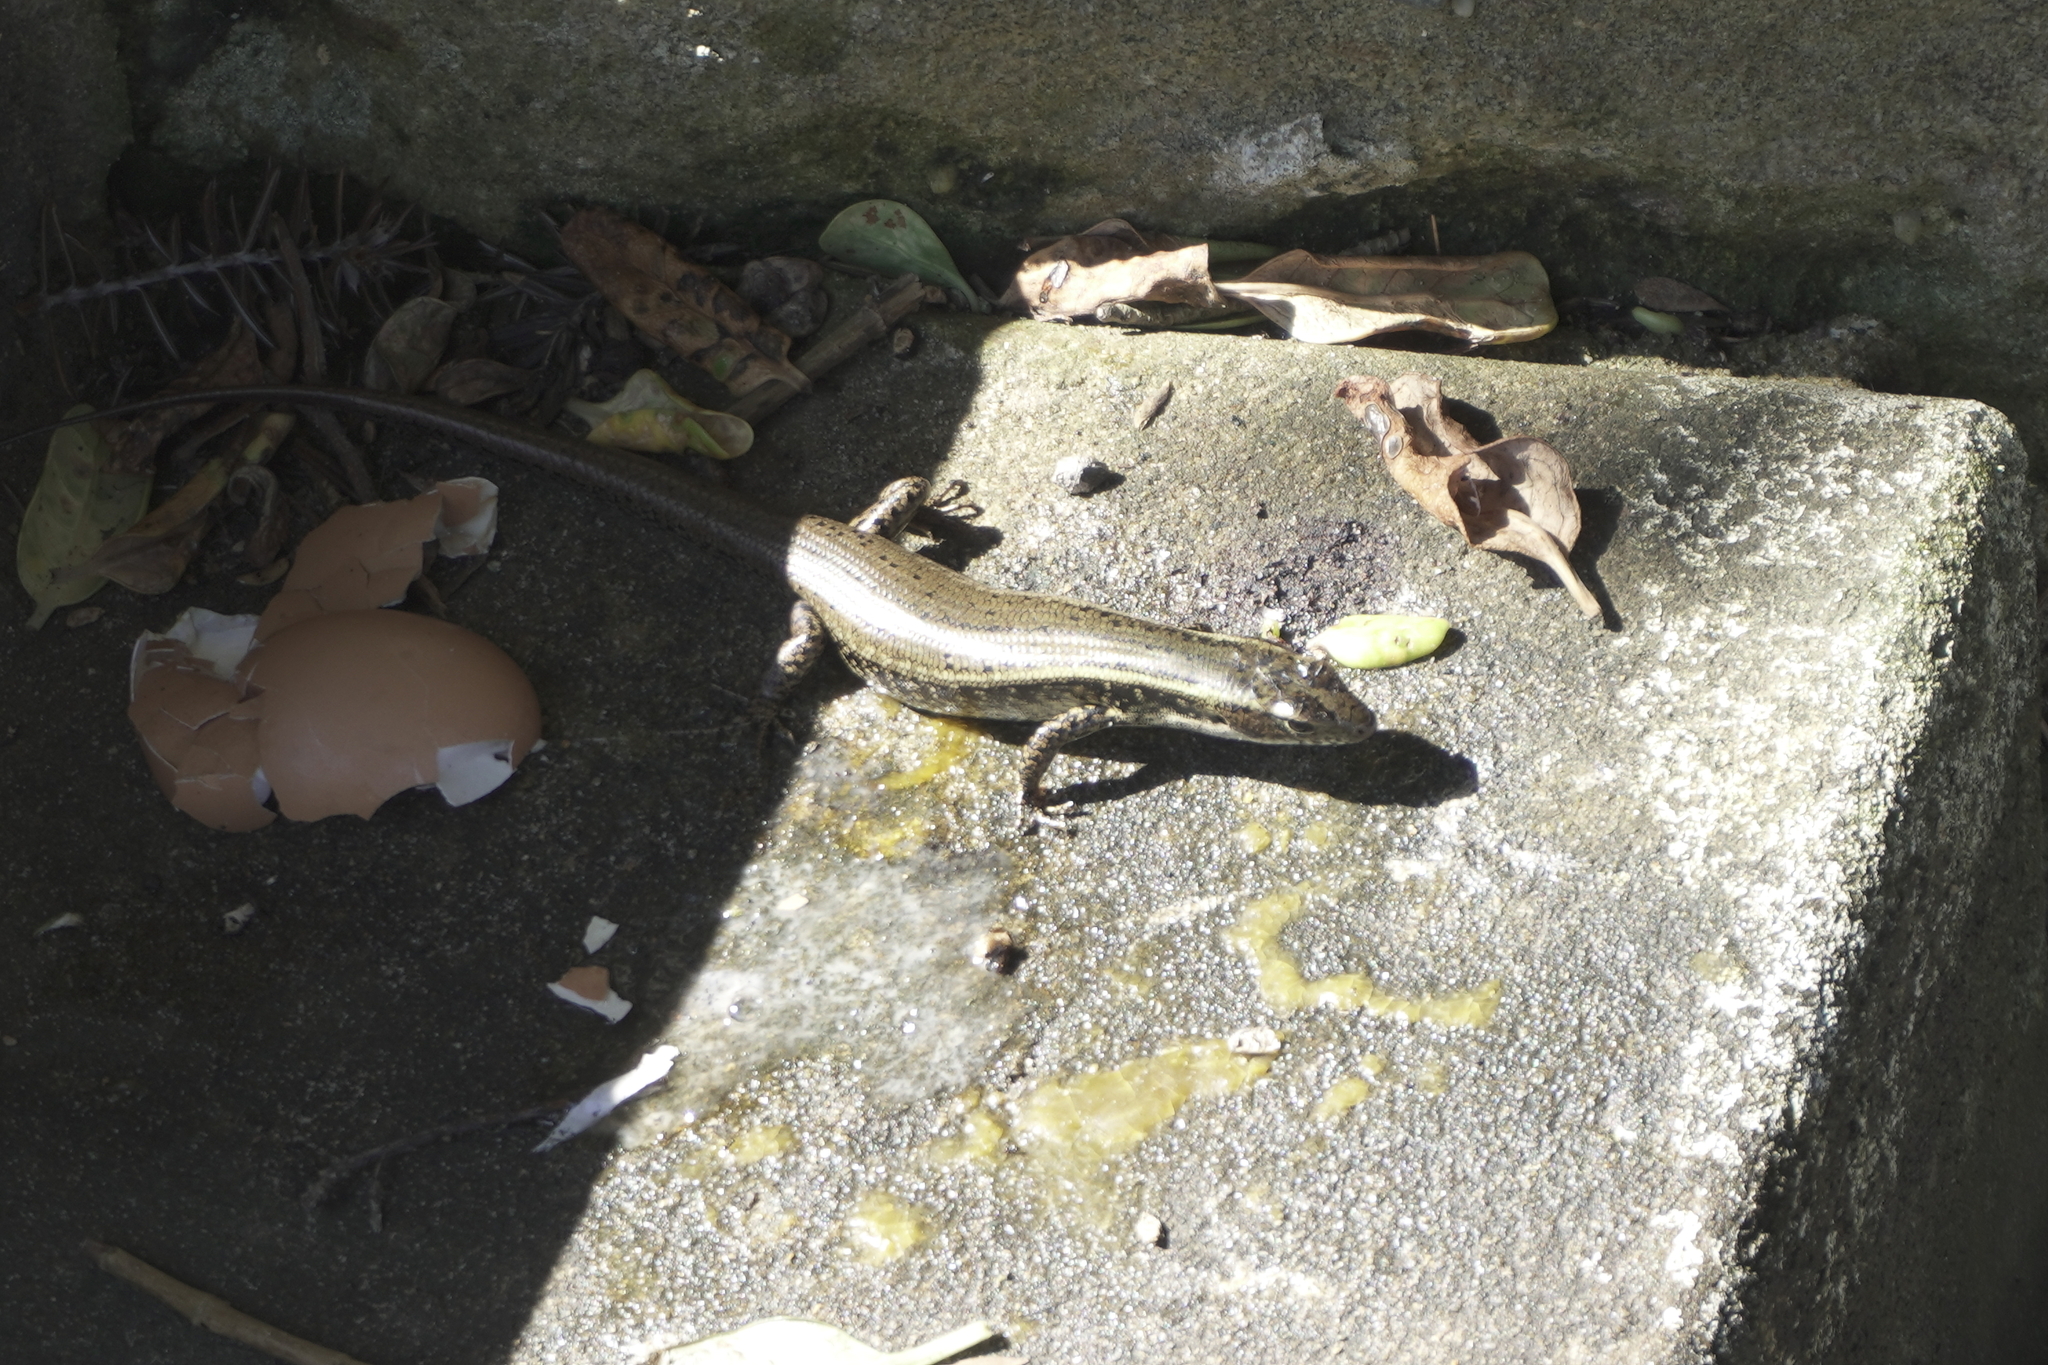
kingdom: Animalia
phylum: Chordata
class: Squamata
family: Scincidae
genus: Eulamprus
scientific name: Eulamprus quoyii
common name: Eastern water skink
